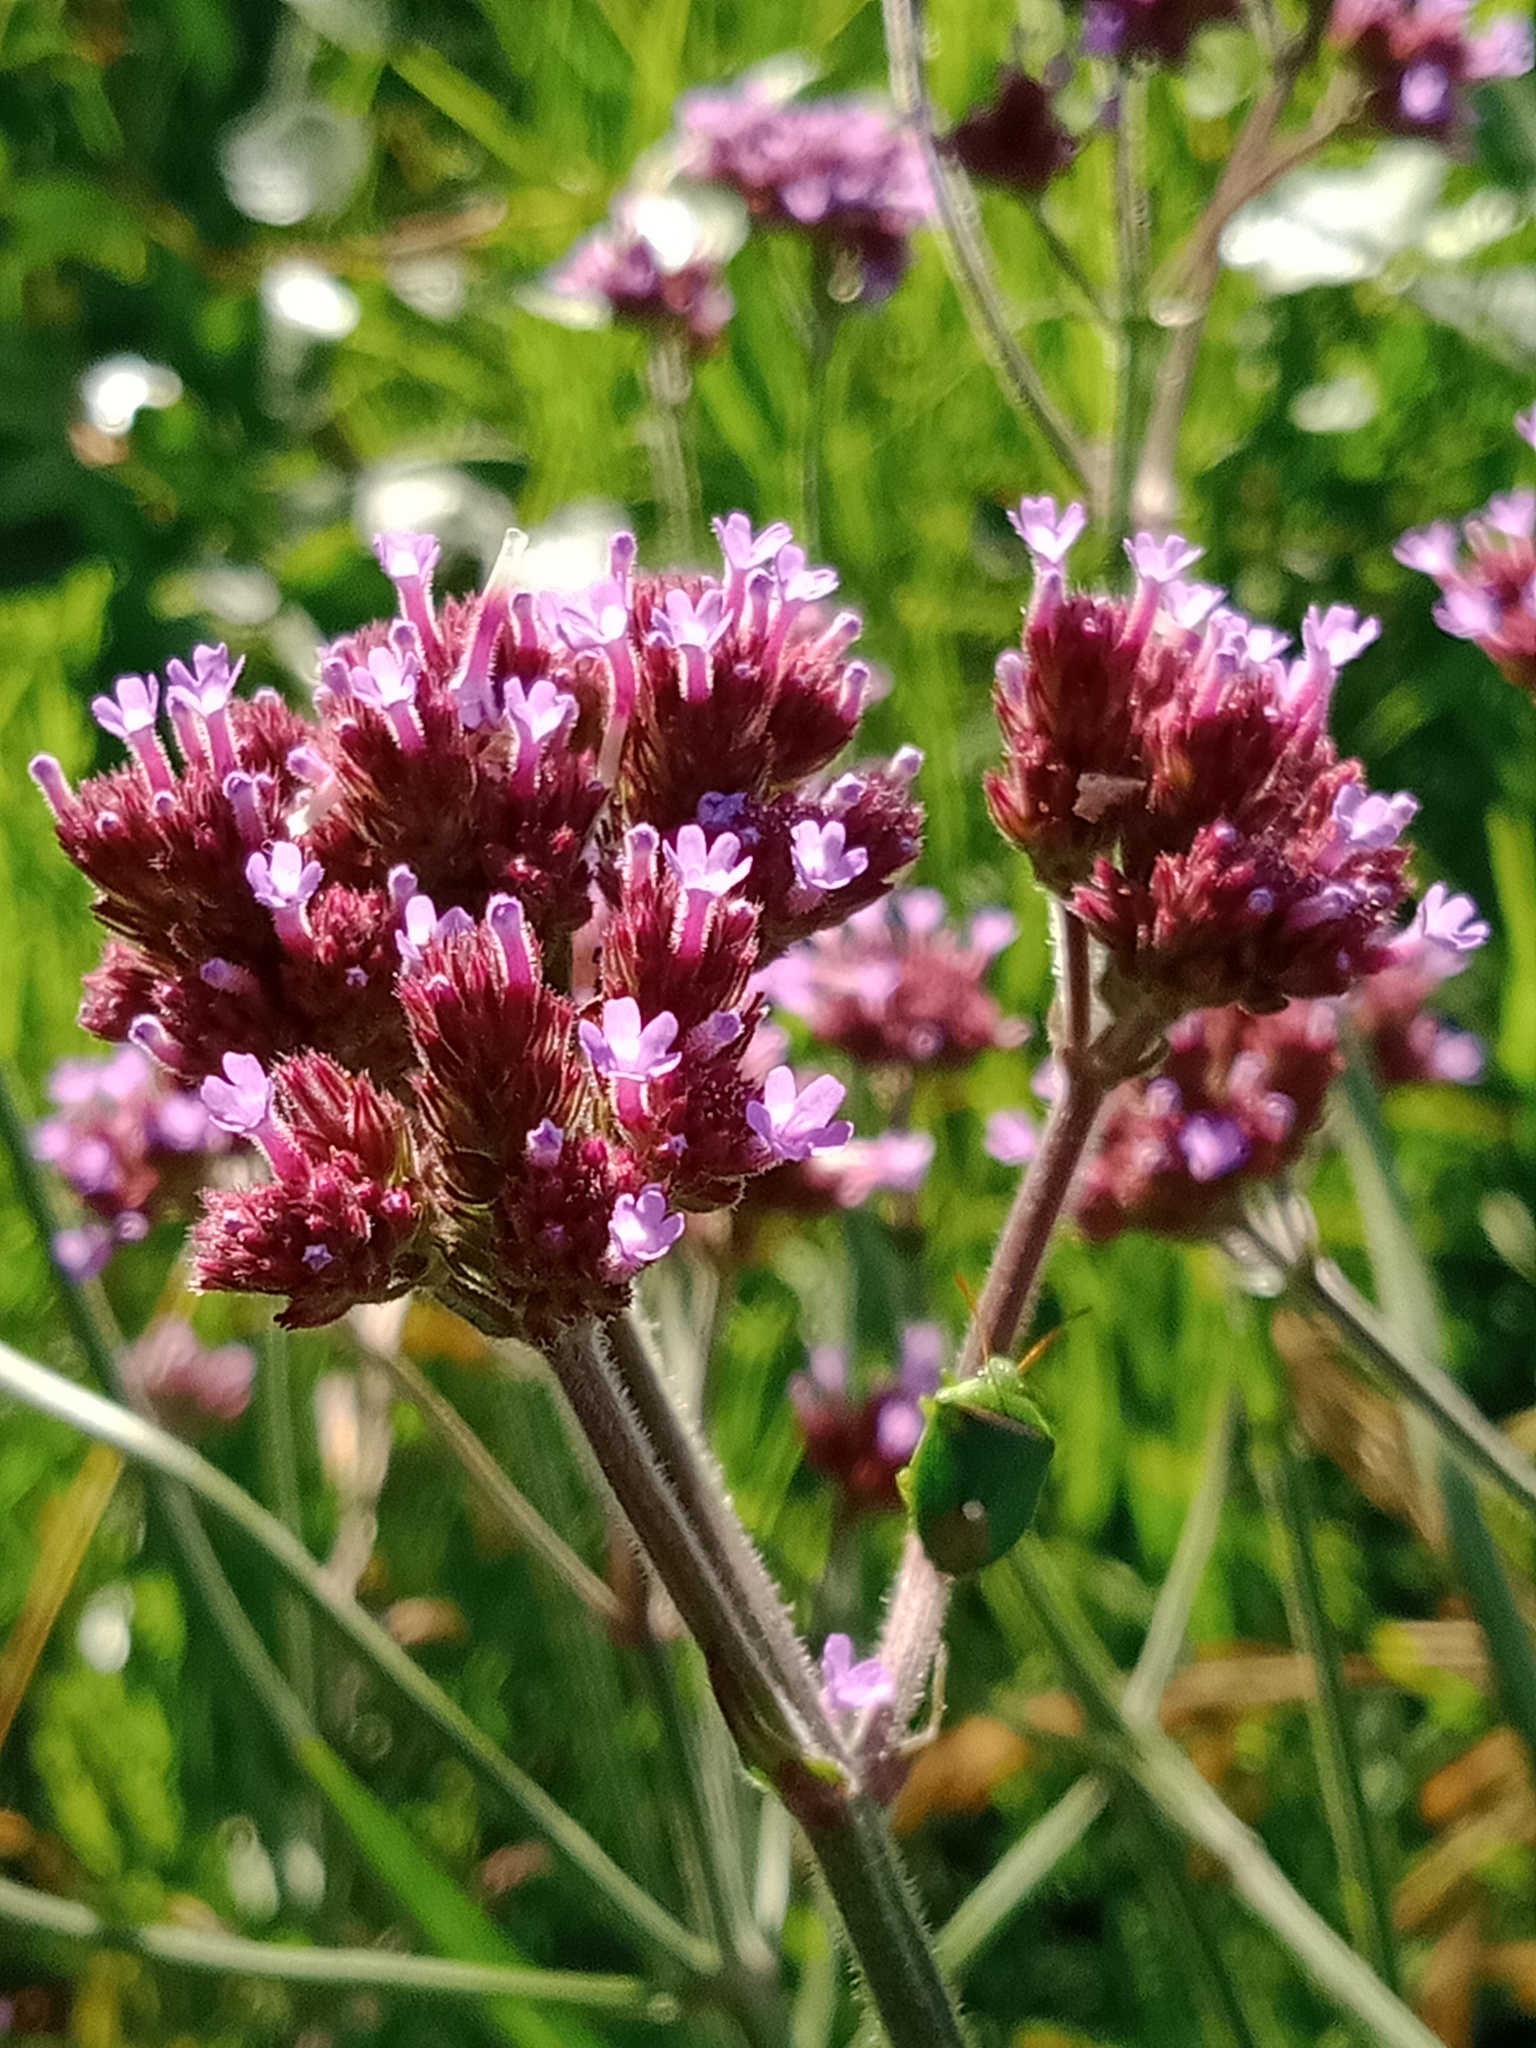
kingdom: Animalia
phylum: Arthropoda
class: Insecta
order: Hemiptera
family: Pentatomidae
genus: Ocirrhoe
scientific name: Ocirrhoe
